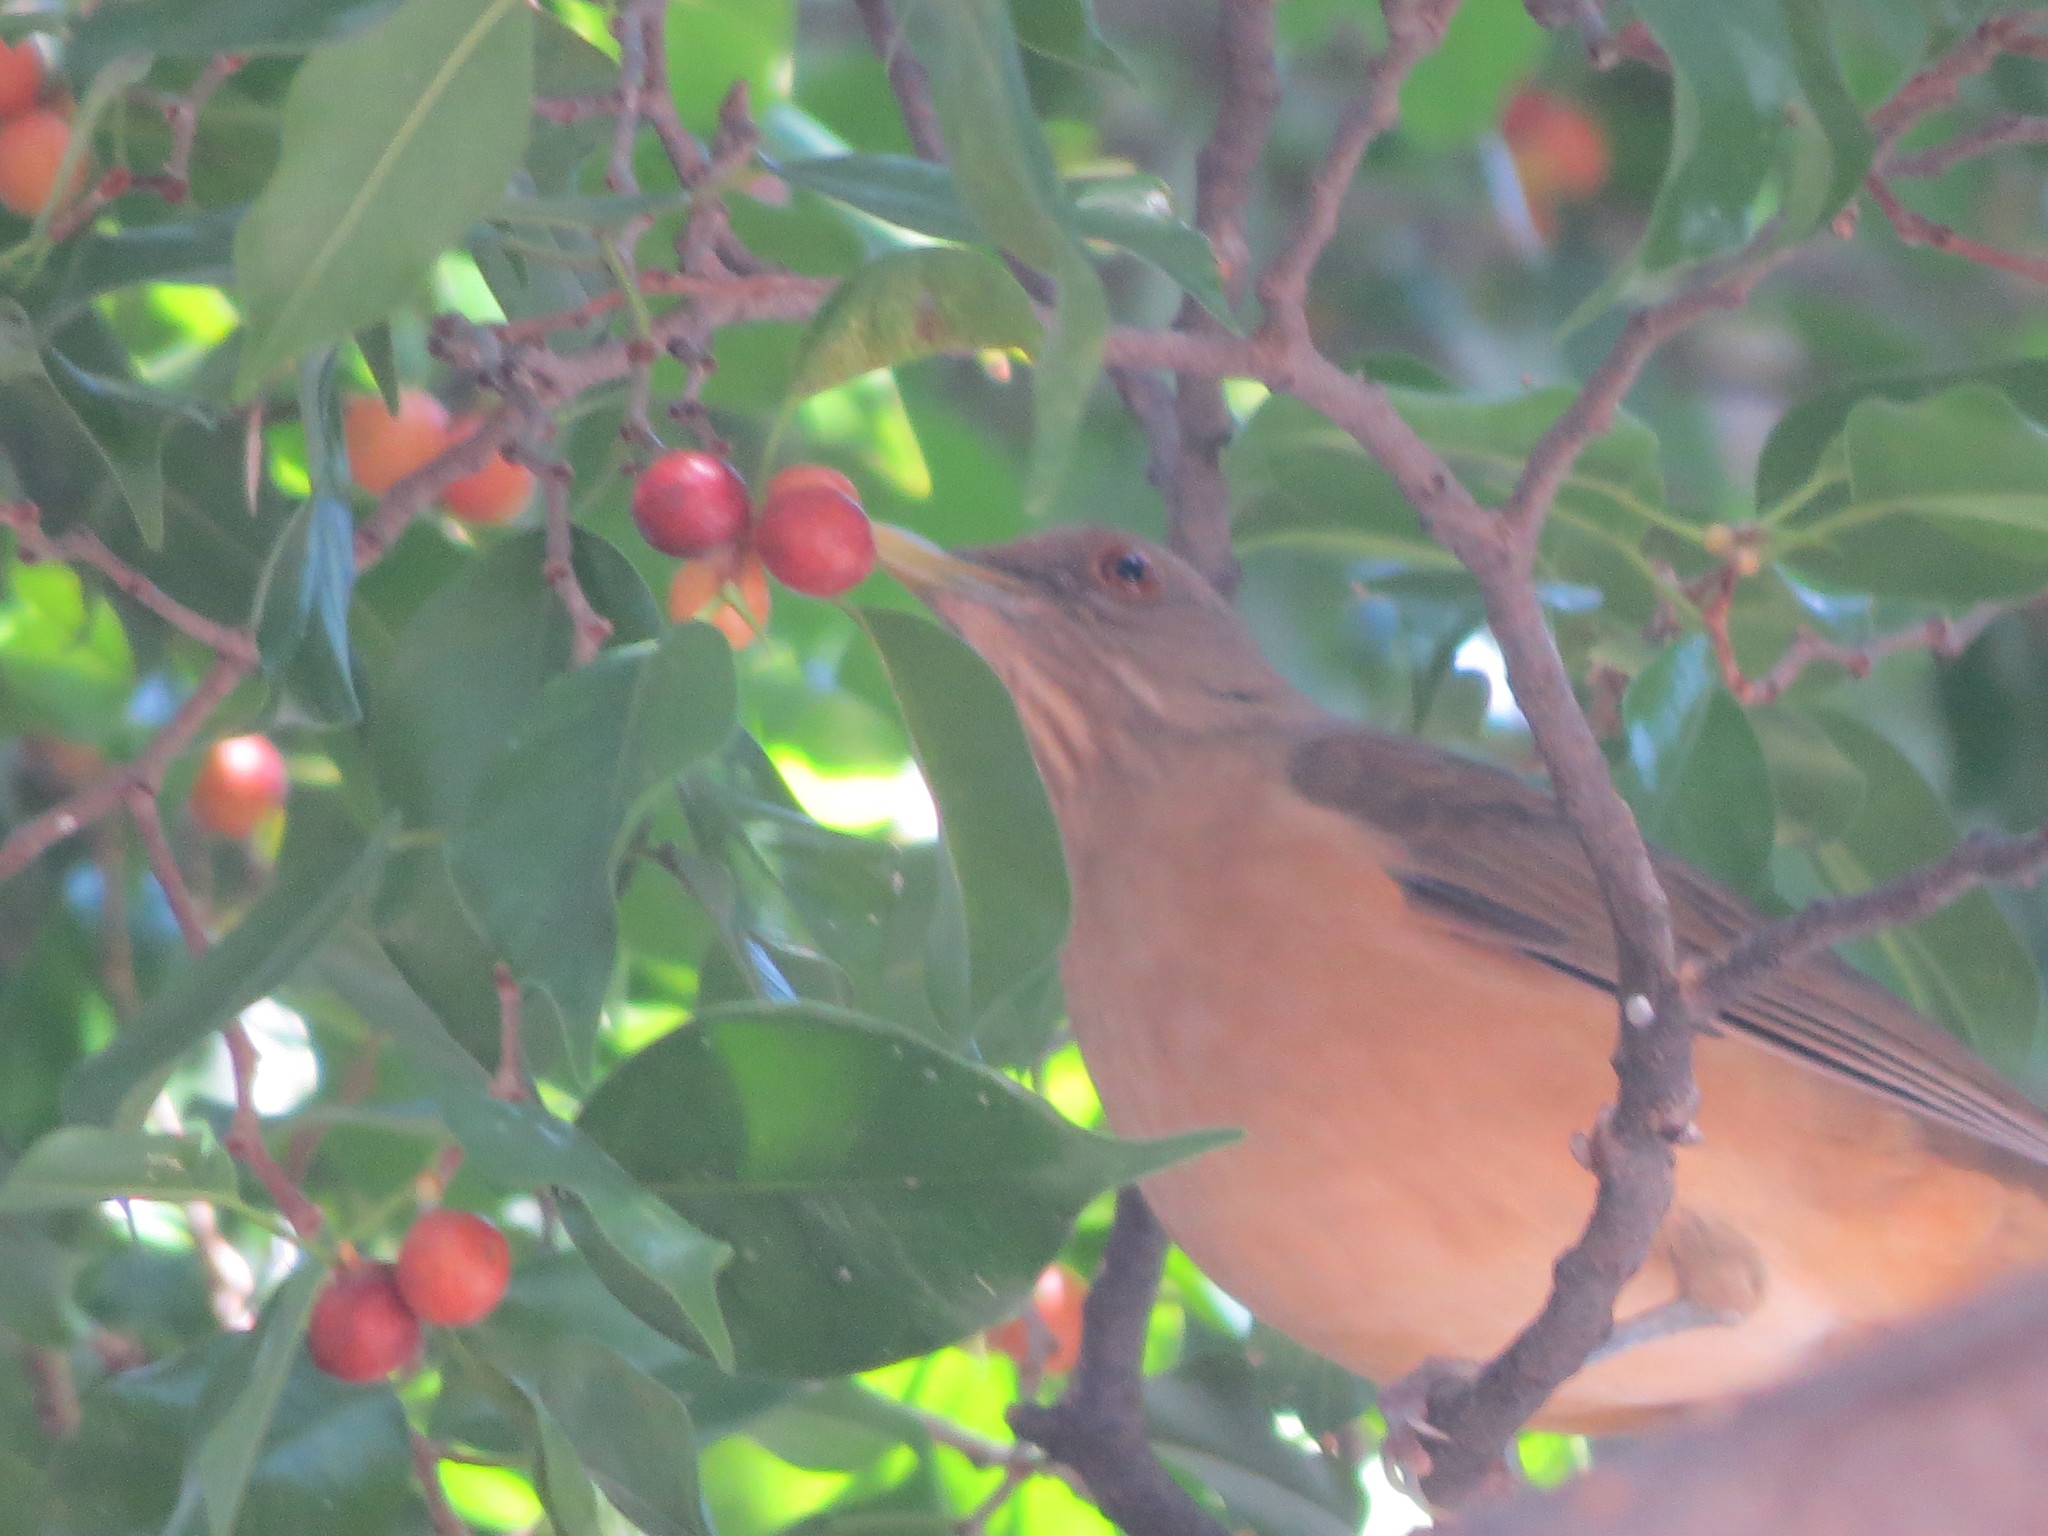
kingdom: Animalia
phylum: Chordata
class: Aves
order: Passeriformes
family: Turdidae
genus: Turdus
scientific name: Turdus grayi
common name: Clay-colored thrush
